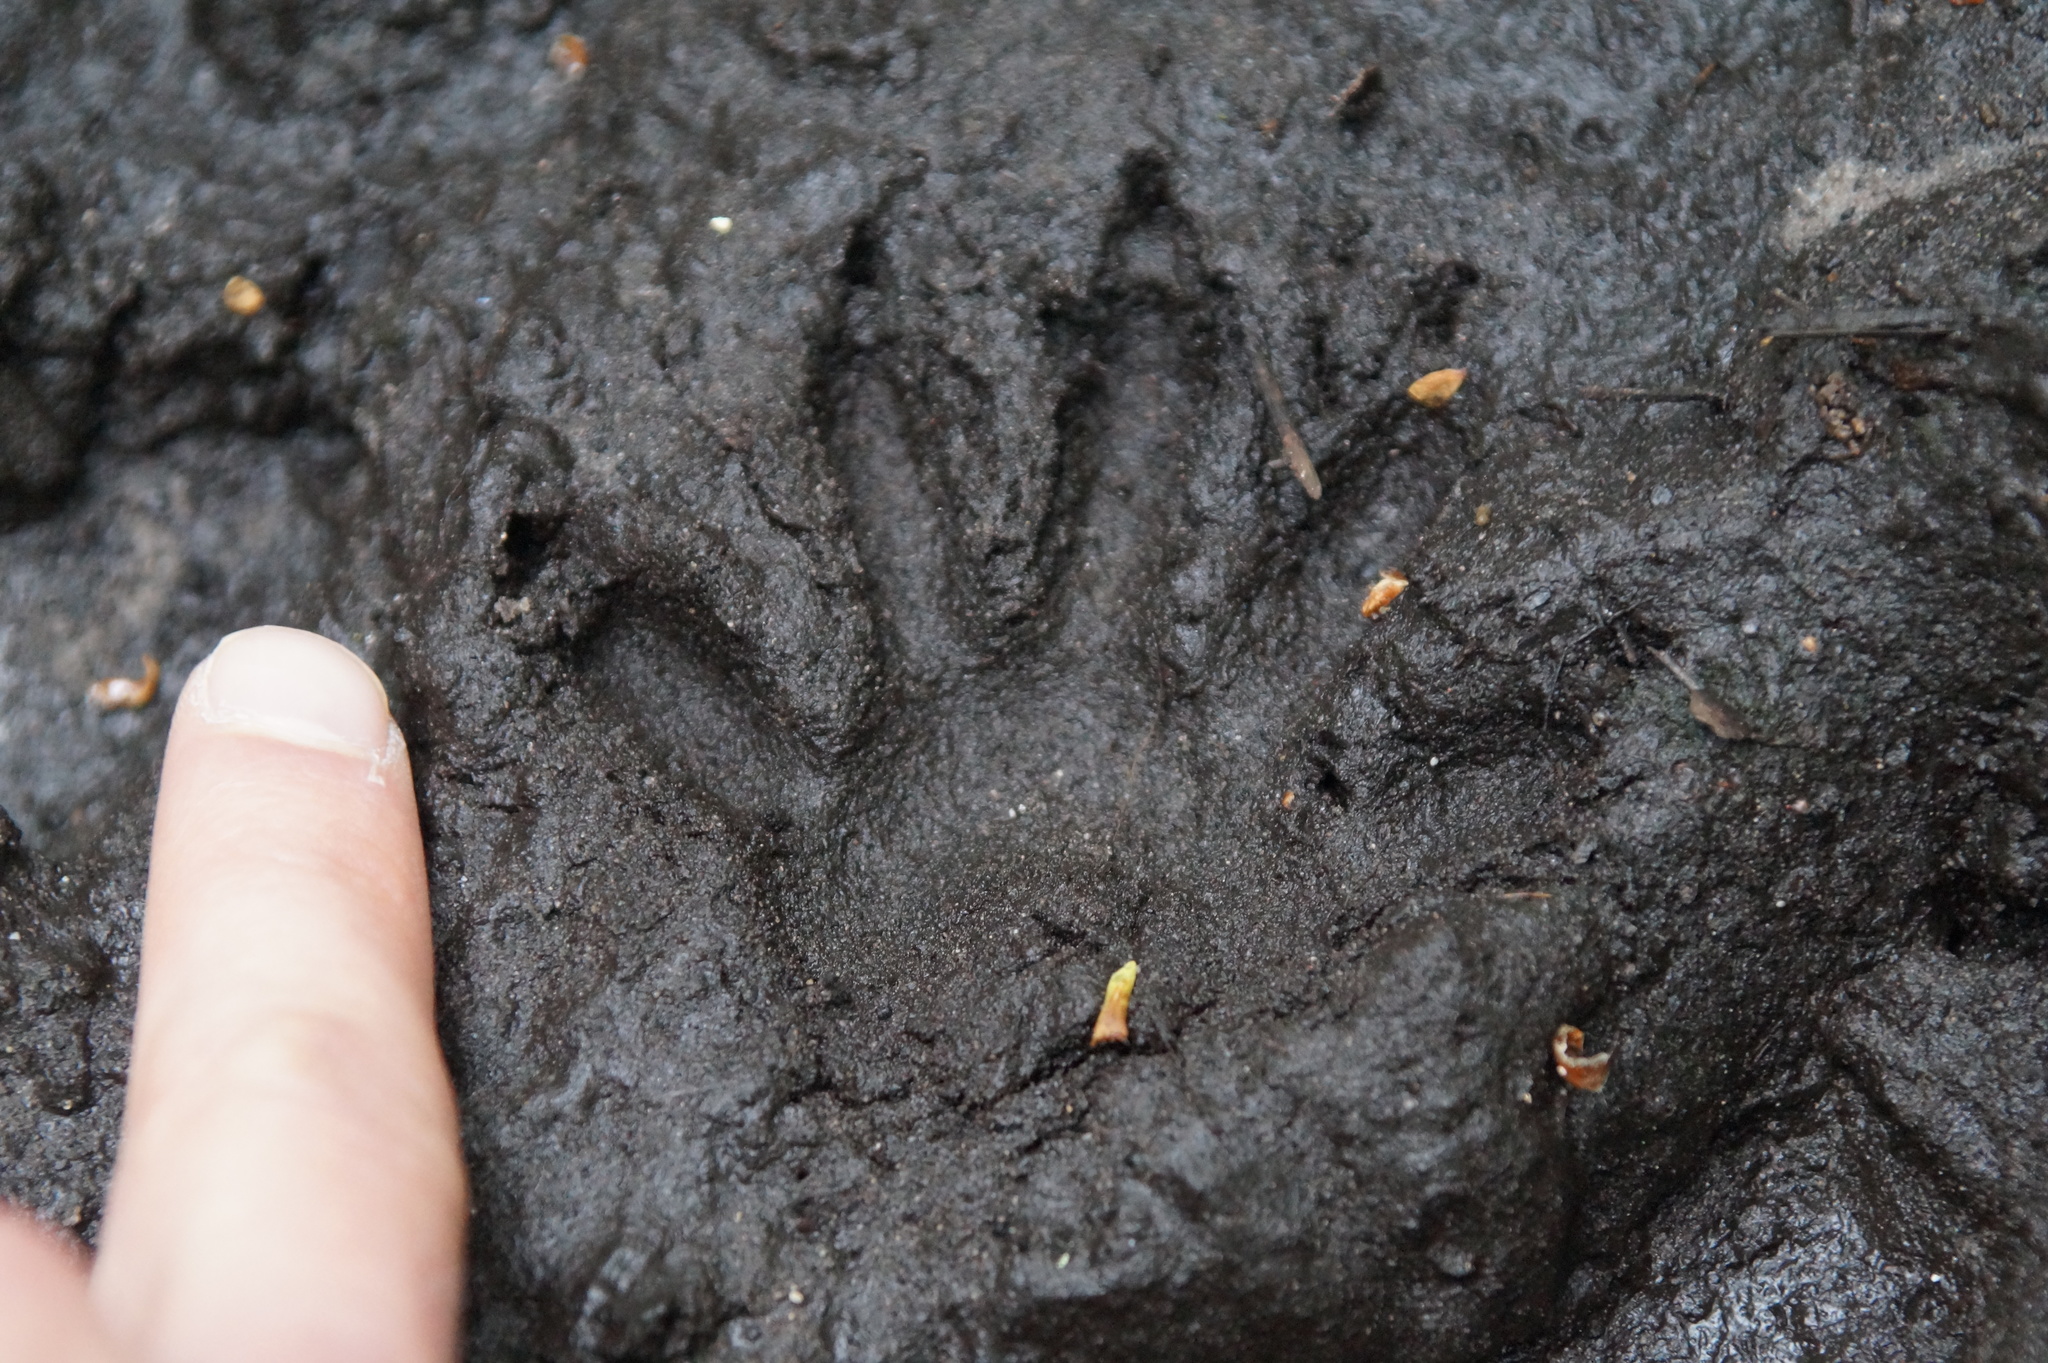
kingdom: Animalia
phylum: Chordata
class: Mammalia
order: Carnivora
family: Procyonidae
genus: Procyon
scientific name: Procyon lotor
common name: Raccoon
